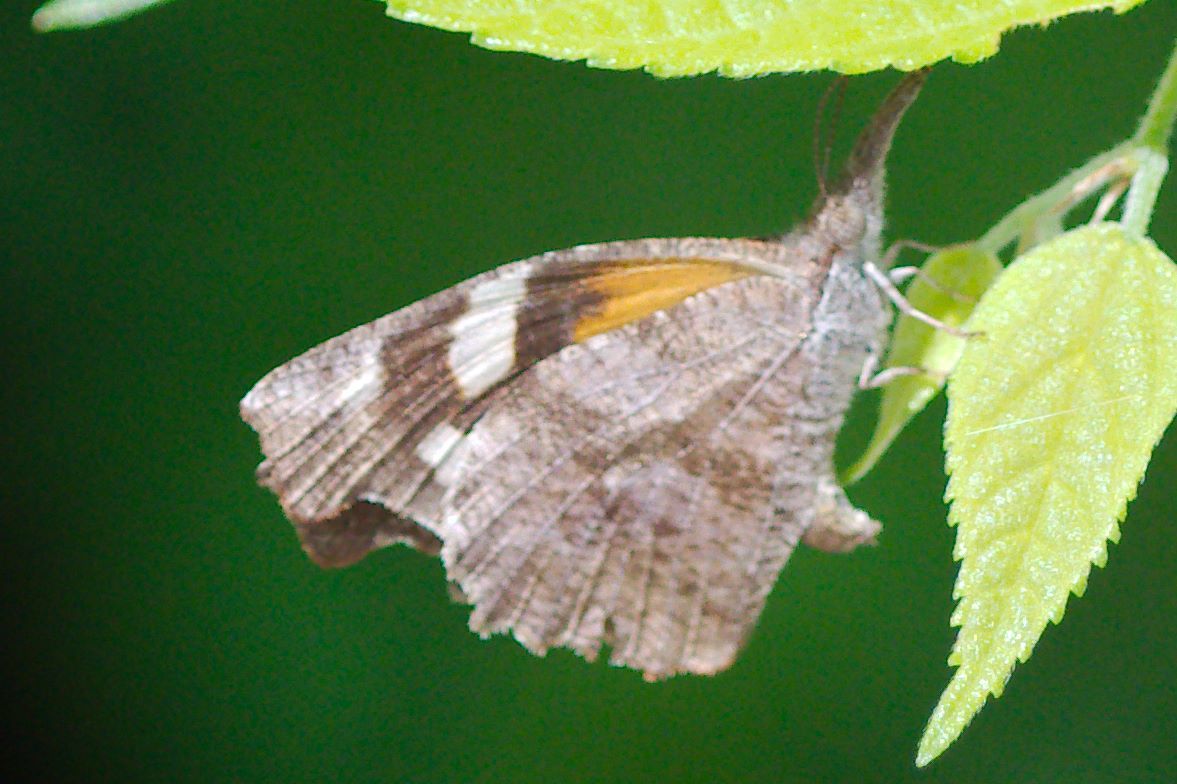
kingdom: Animalia
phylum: Arthropoda
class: Insecta
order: Lepidoptera
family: Nymphalidae
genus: Libytheana
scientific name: Libytheana carinenta
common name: American snout
